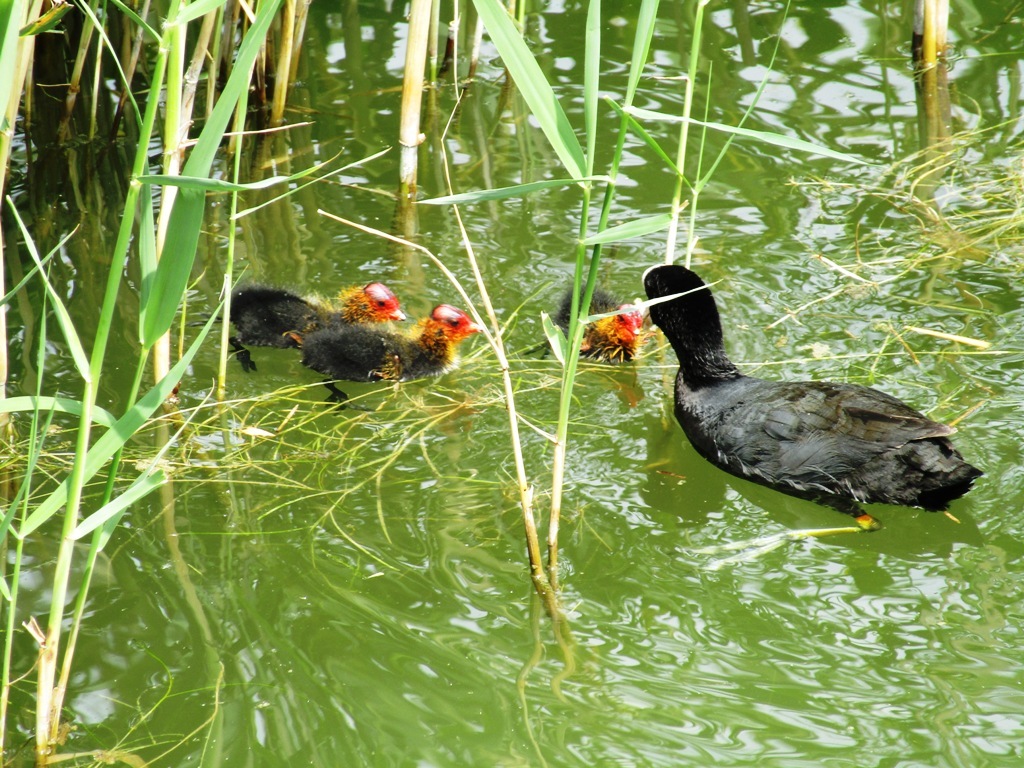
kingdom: Animalia
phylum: Chordata
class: Aves
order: Gruiformes
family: Rallidae
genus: Fulica
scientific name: Fulica atra
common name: Eurasian coot
